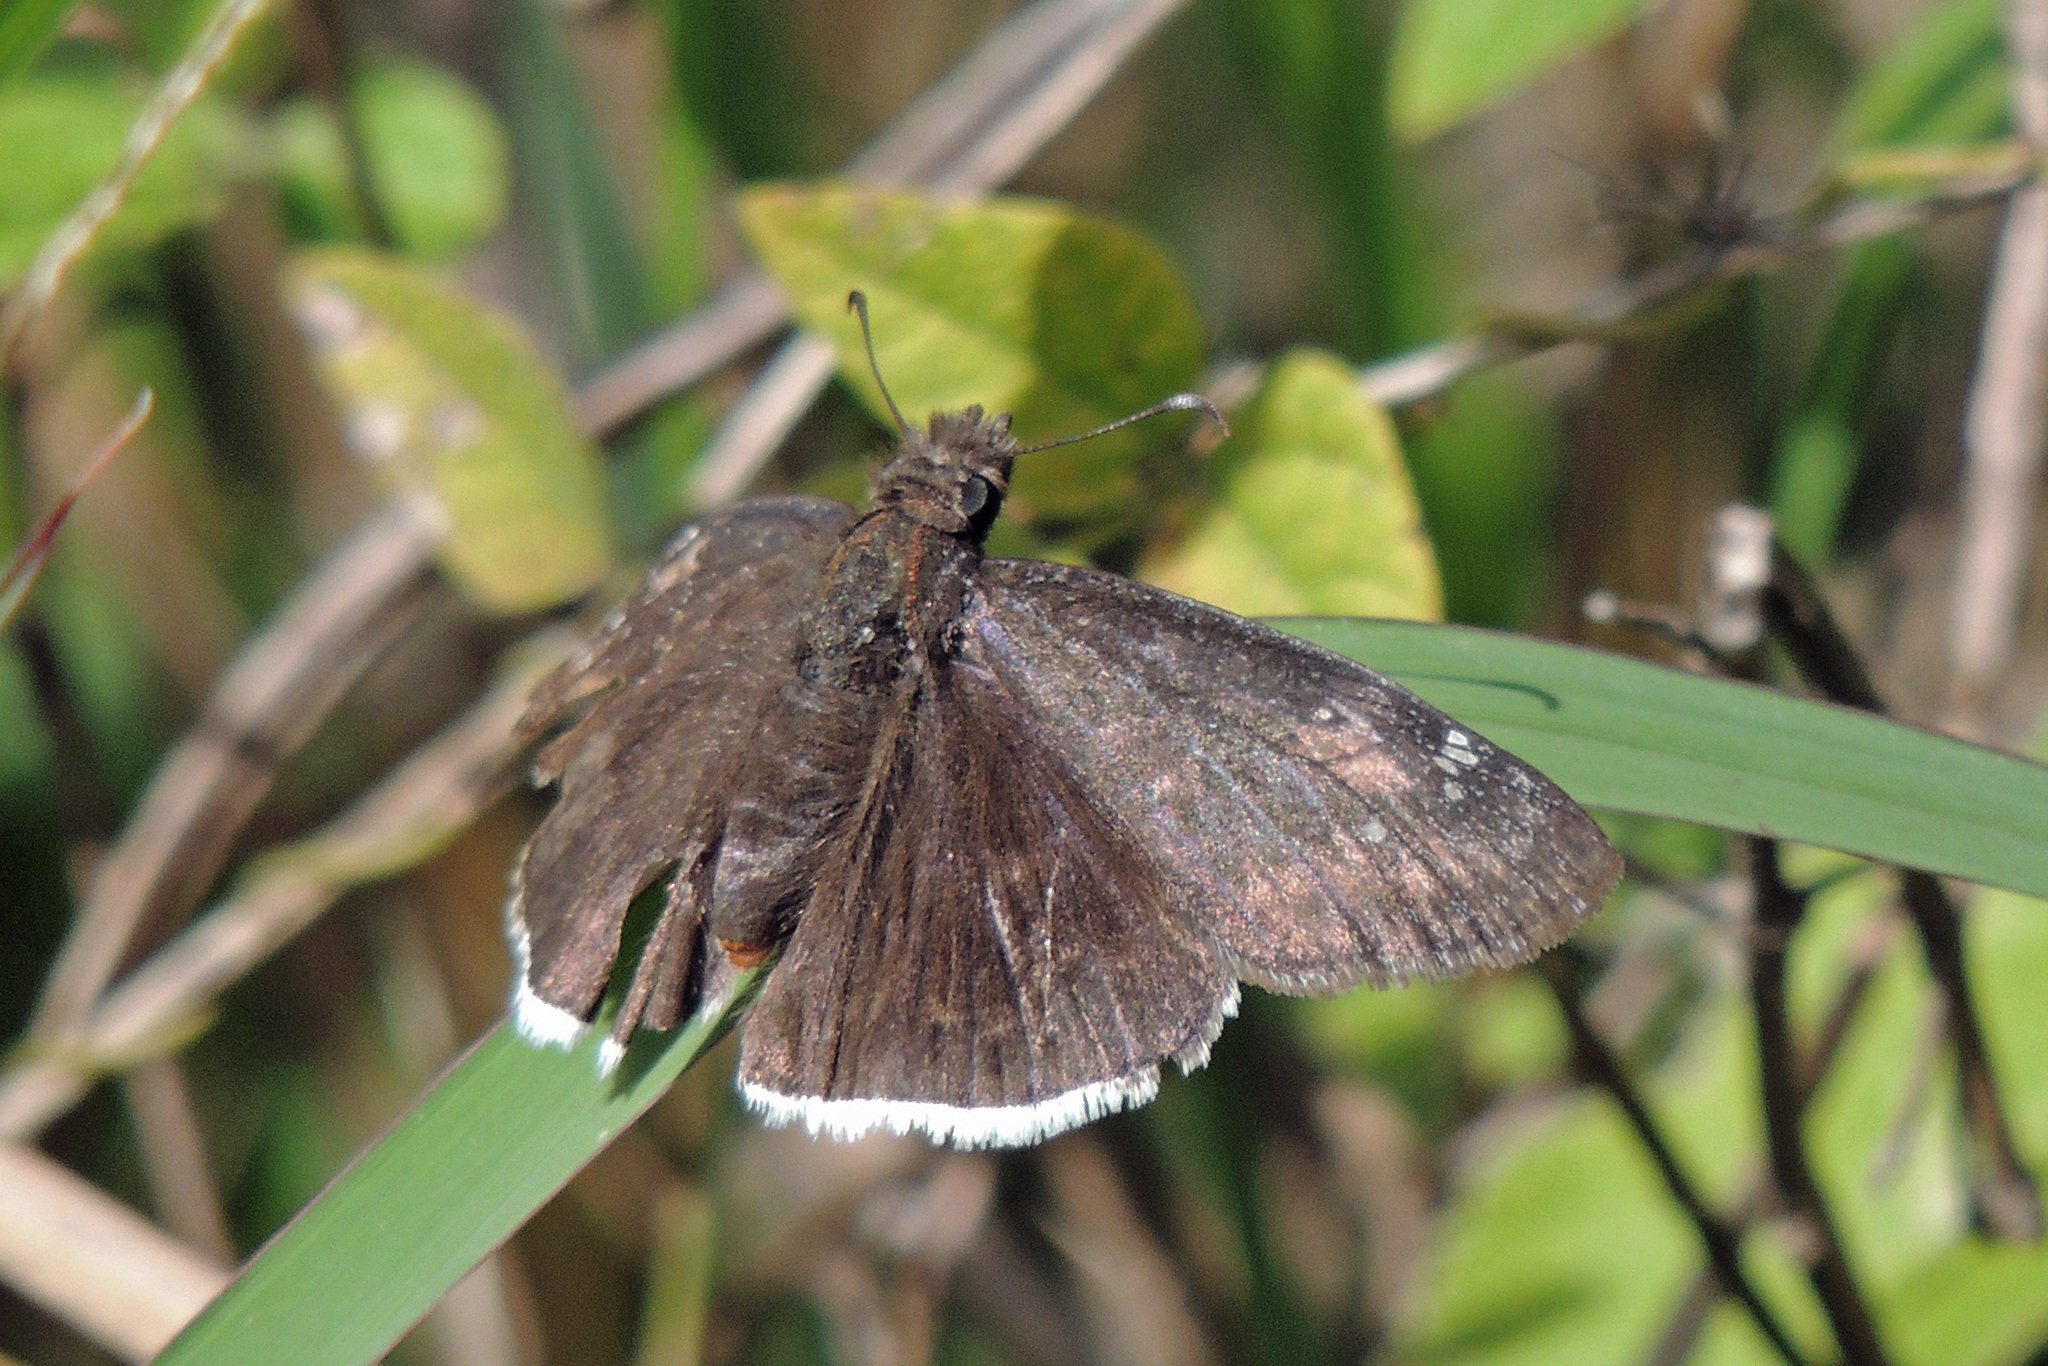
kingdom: Animalia
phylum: Arthropoda
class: Insecta
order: Lepidoptera
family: Hesperiidae
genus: Erynnis
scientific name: Erynnis funeralis
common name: Funereal duskywing
